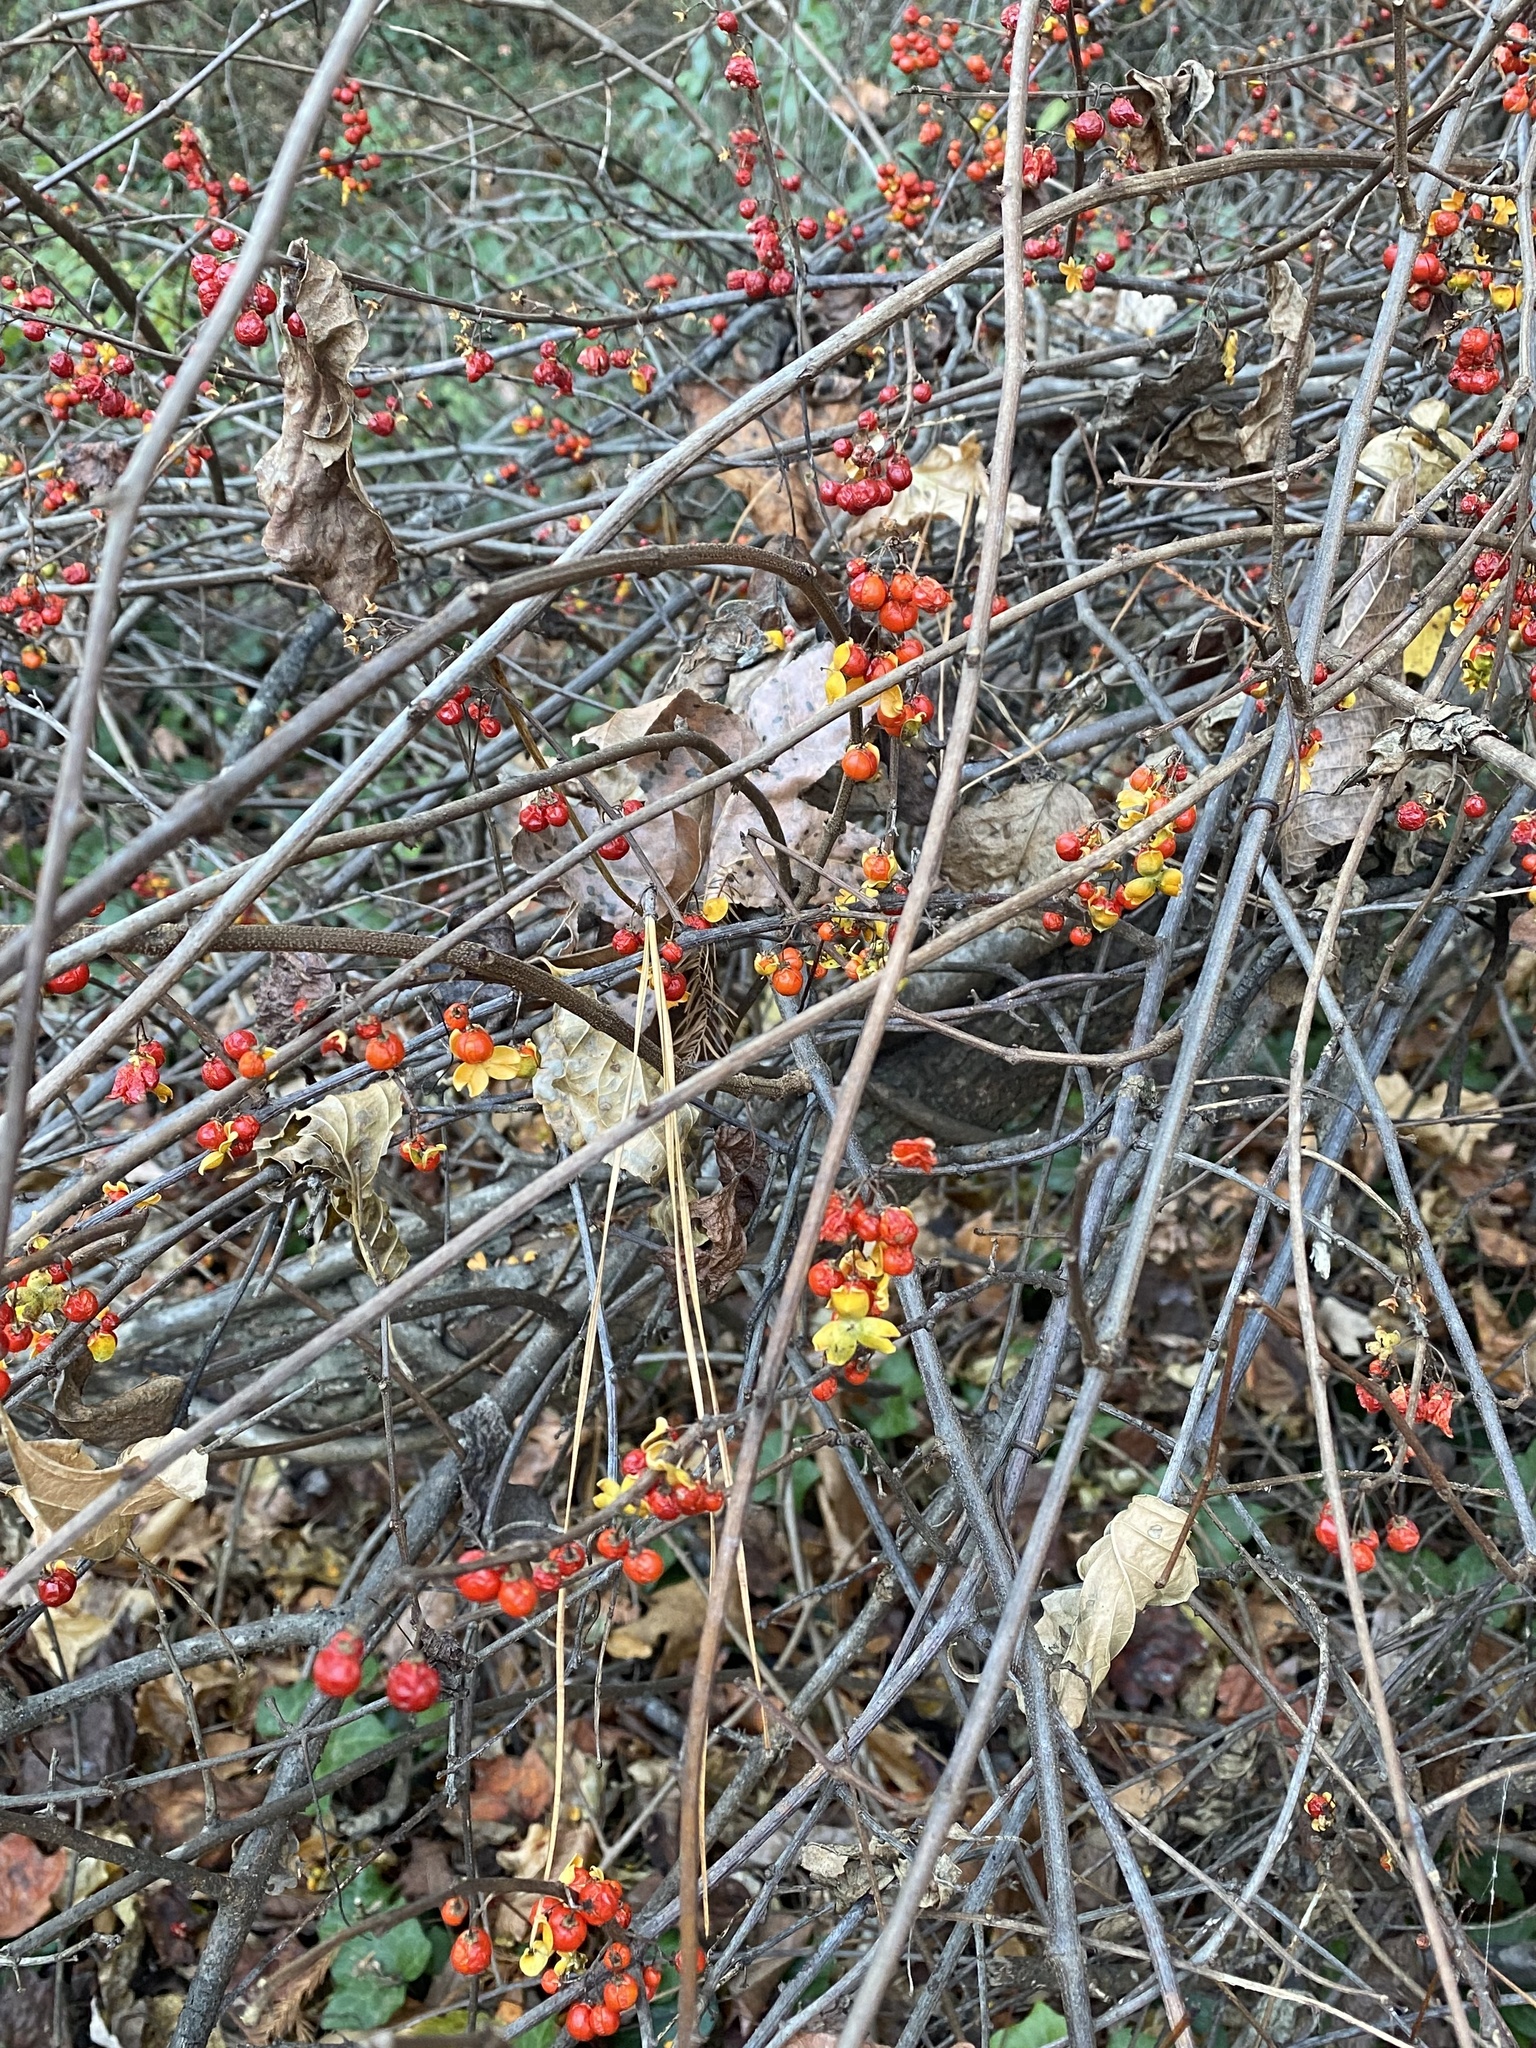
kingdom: Plantae
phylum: Tracheophyta
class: Magnoliopsida
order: Celastrales
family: Celastraceae
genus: Celastrus
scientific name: Celastrus orbiculatus
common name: Oriental bittersweet
